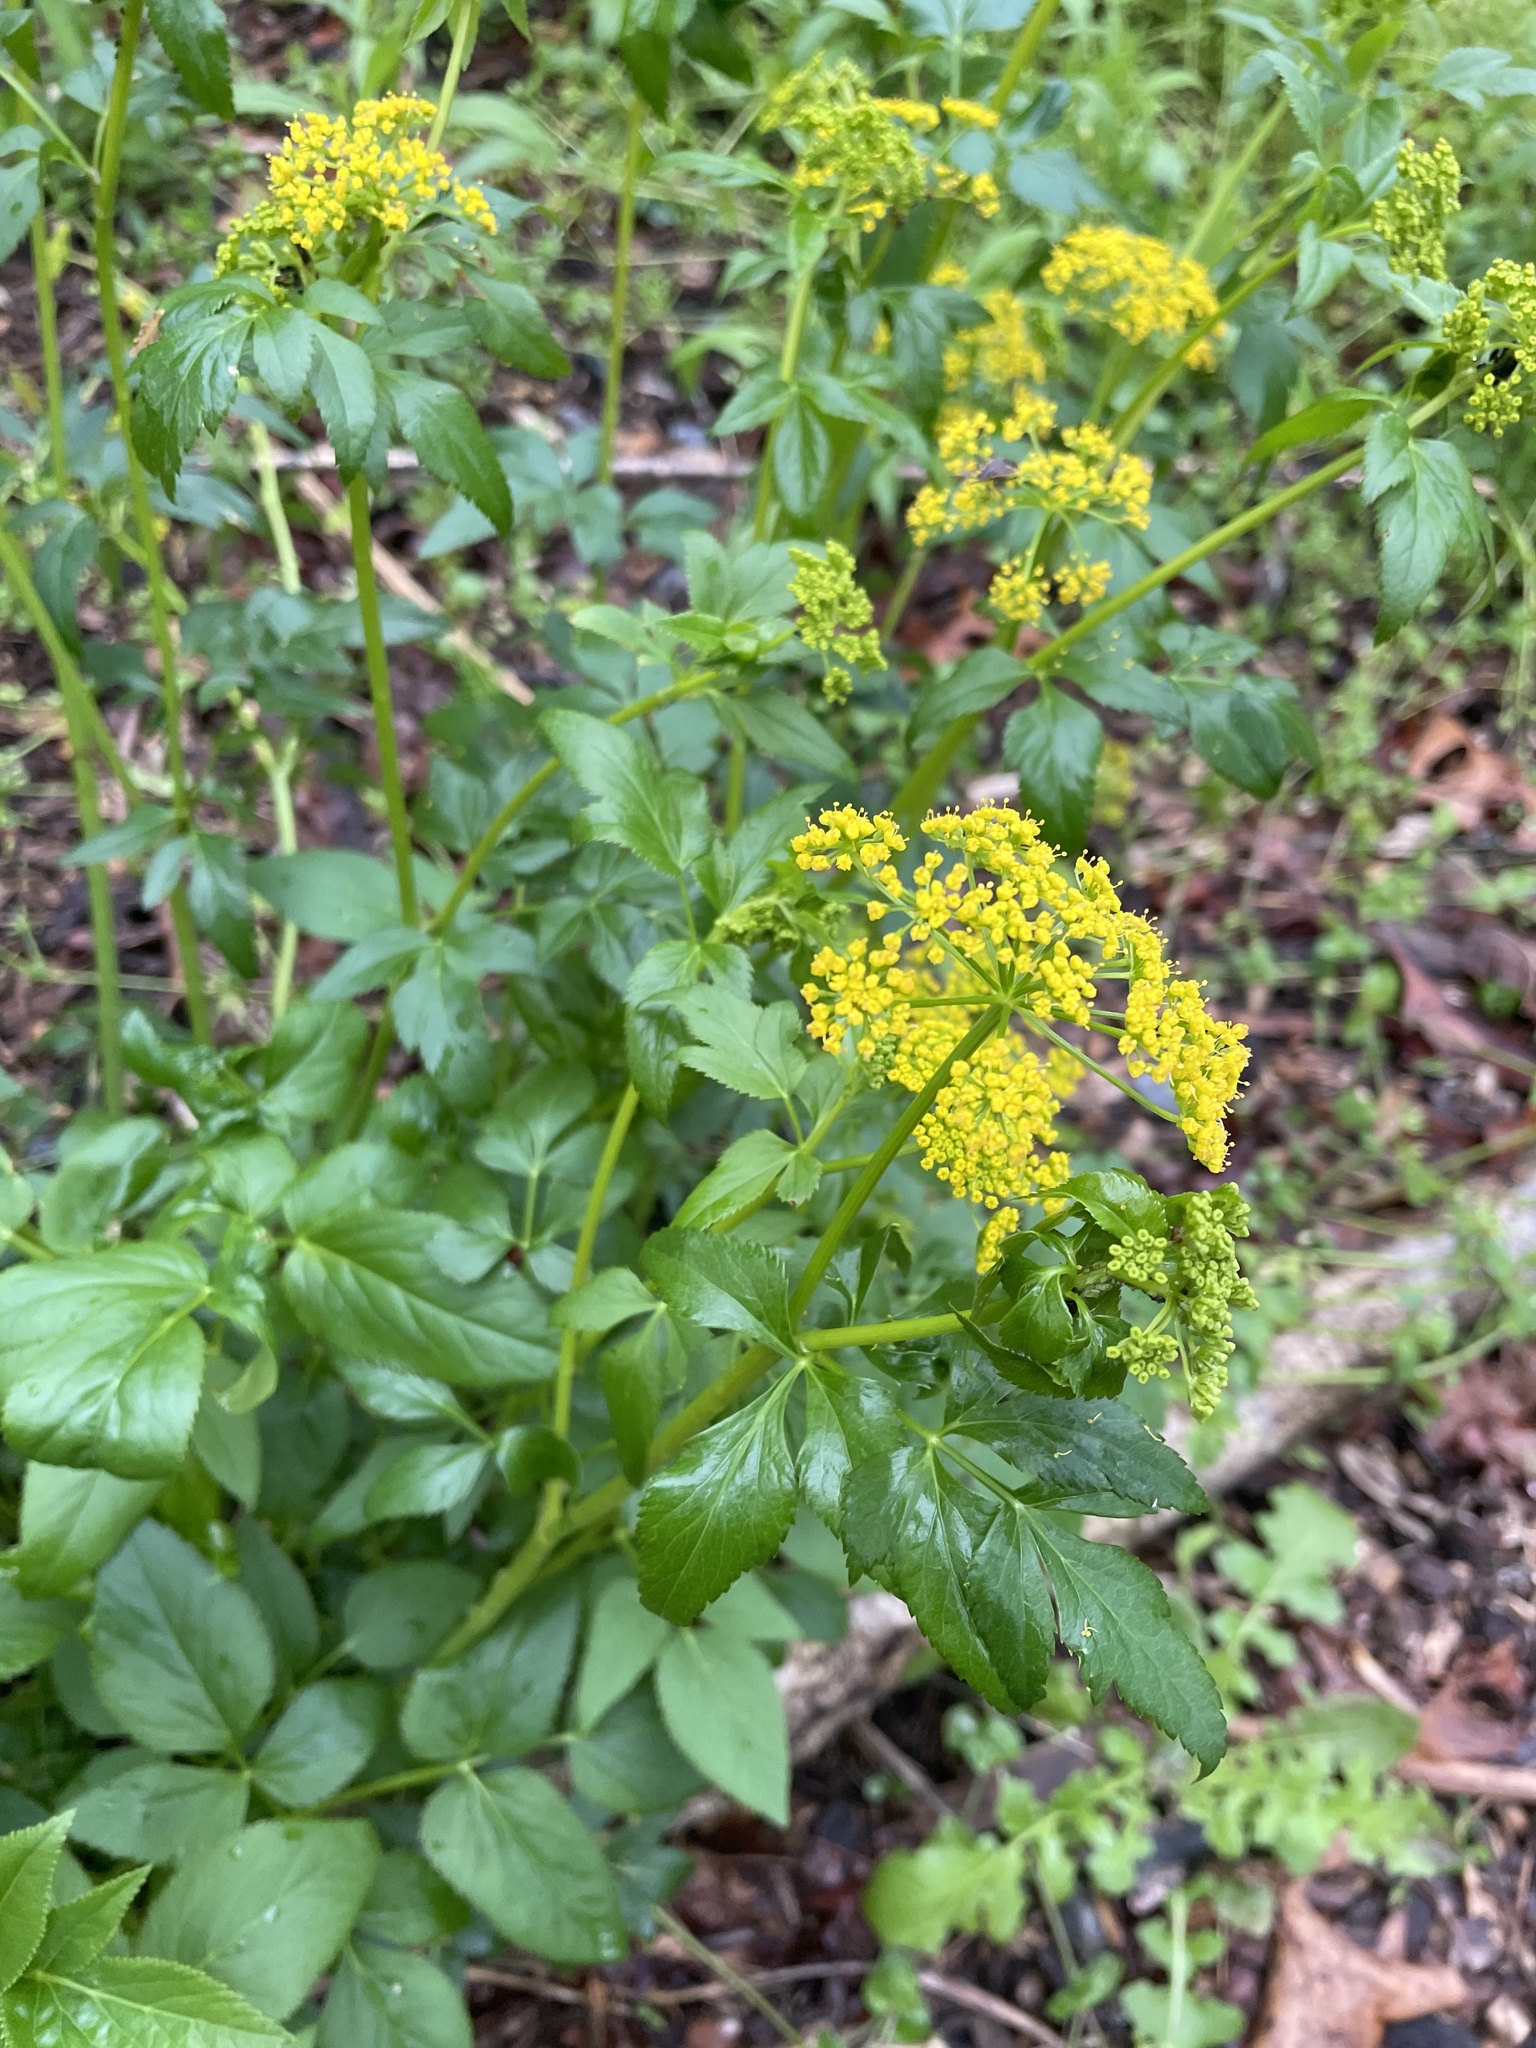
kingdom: Plantae
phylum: Tracheophyta
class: Magnoliopsida
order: Apiales
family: Apiaceae
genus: Zizia
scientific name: Zizia aurea
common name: Golden alexanders
